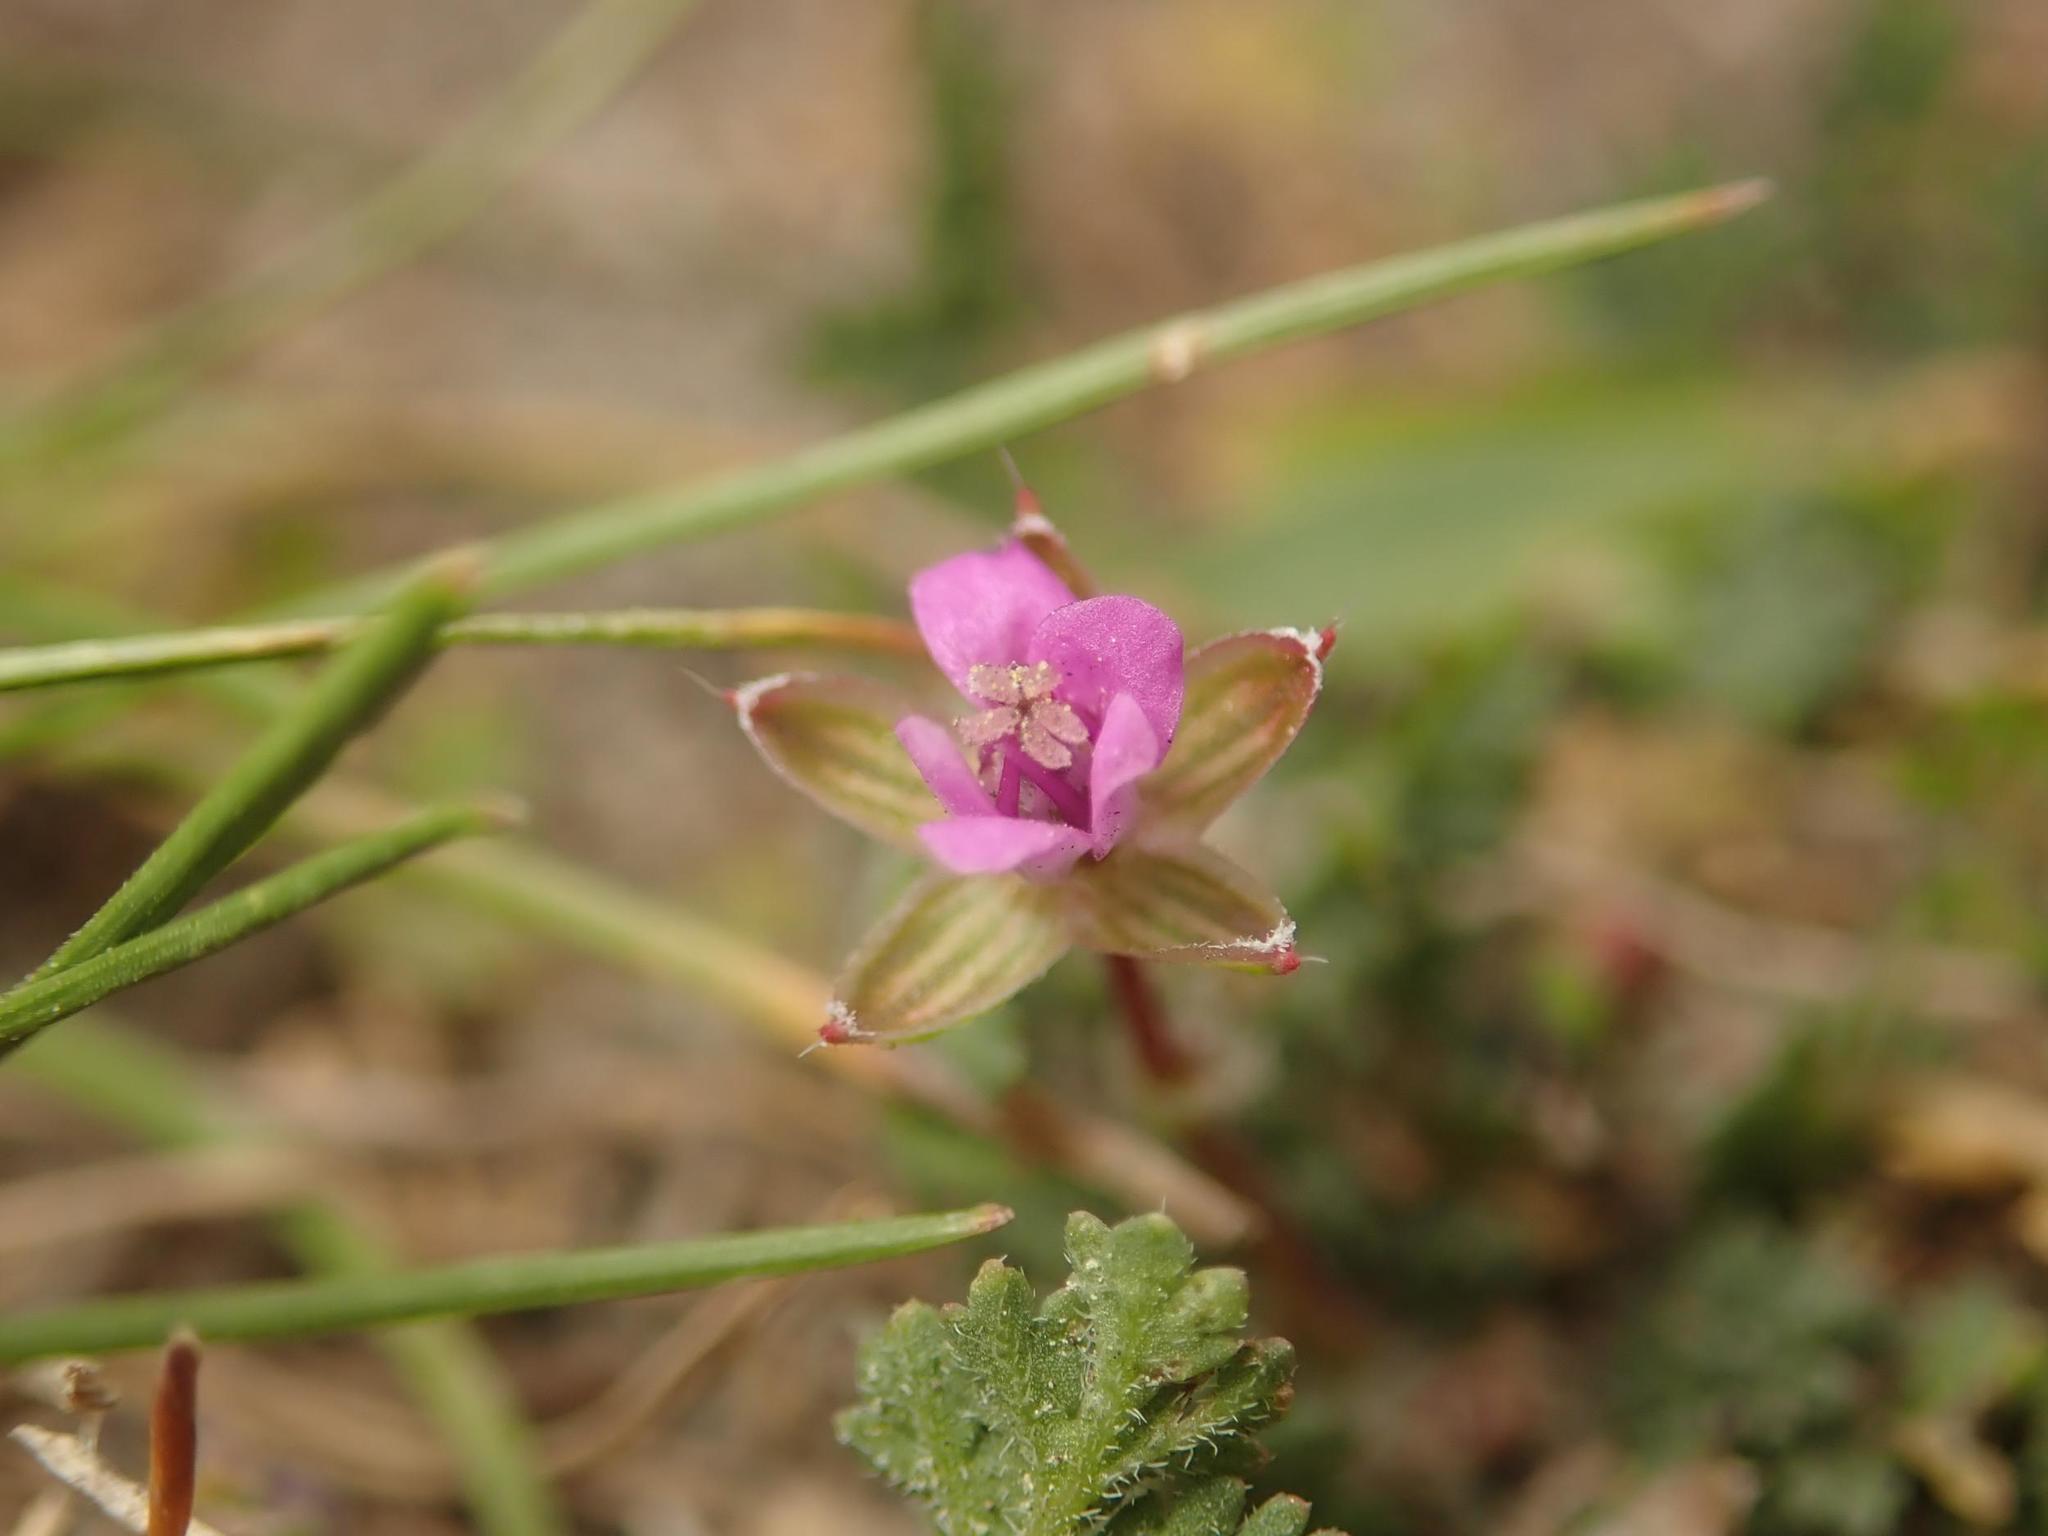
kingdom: Plantae
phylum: Tracheophyta
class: Magnoliopsida
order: Geraniales
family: Geraniaceae
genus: Erodium
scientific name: Erodium cicutarium
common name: Common stork's-bill
